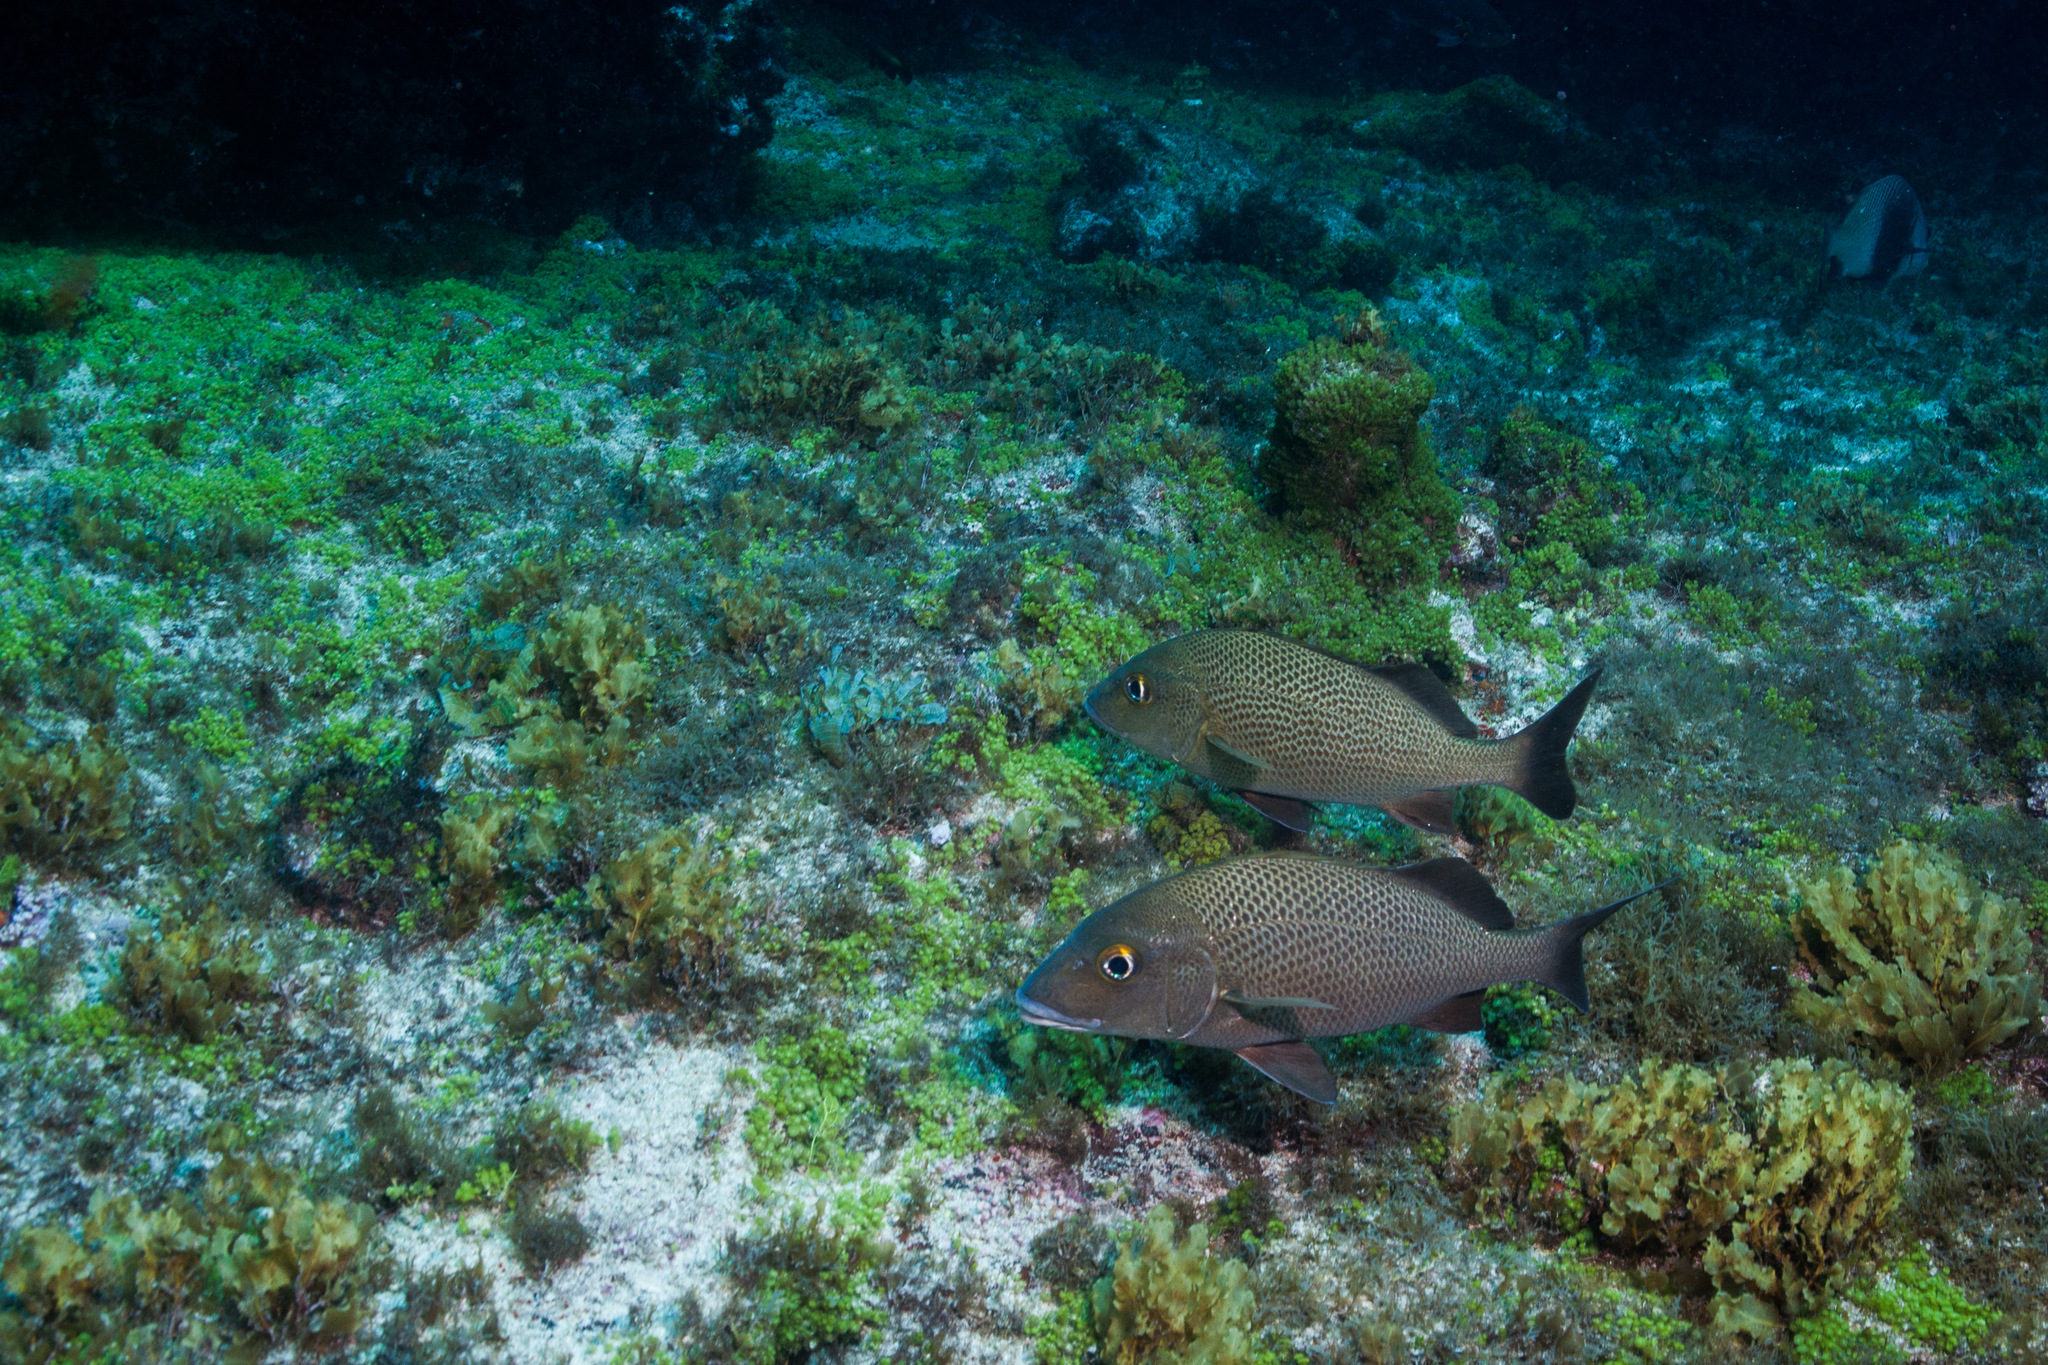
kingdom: Animalia
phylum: Chordata
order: Perciformes
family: Haemulidae
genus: Haemulon
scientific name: Haemulon parra
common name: Sailor's choice
